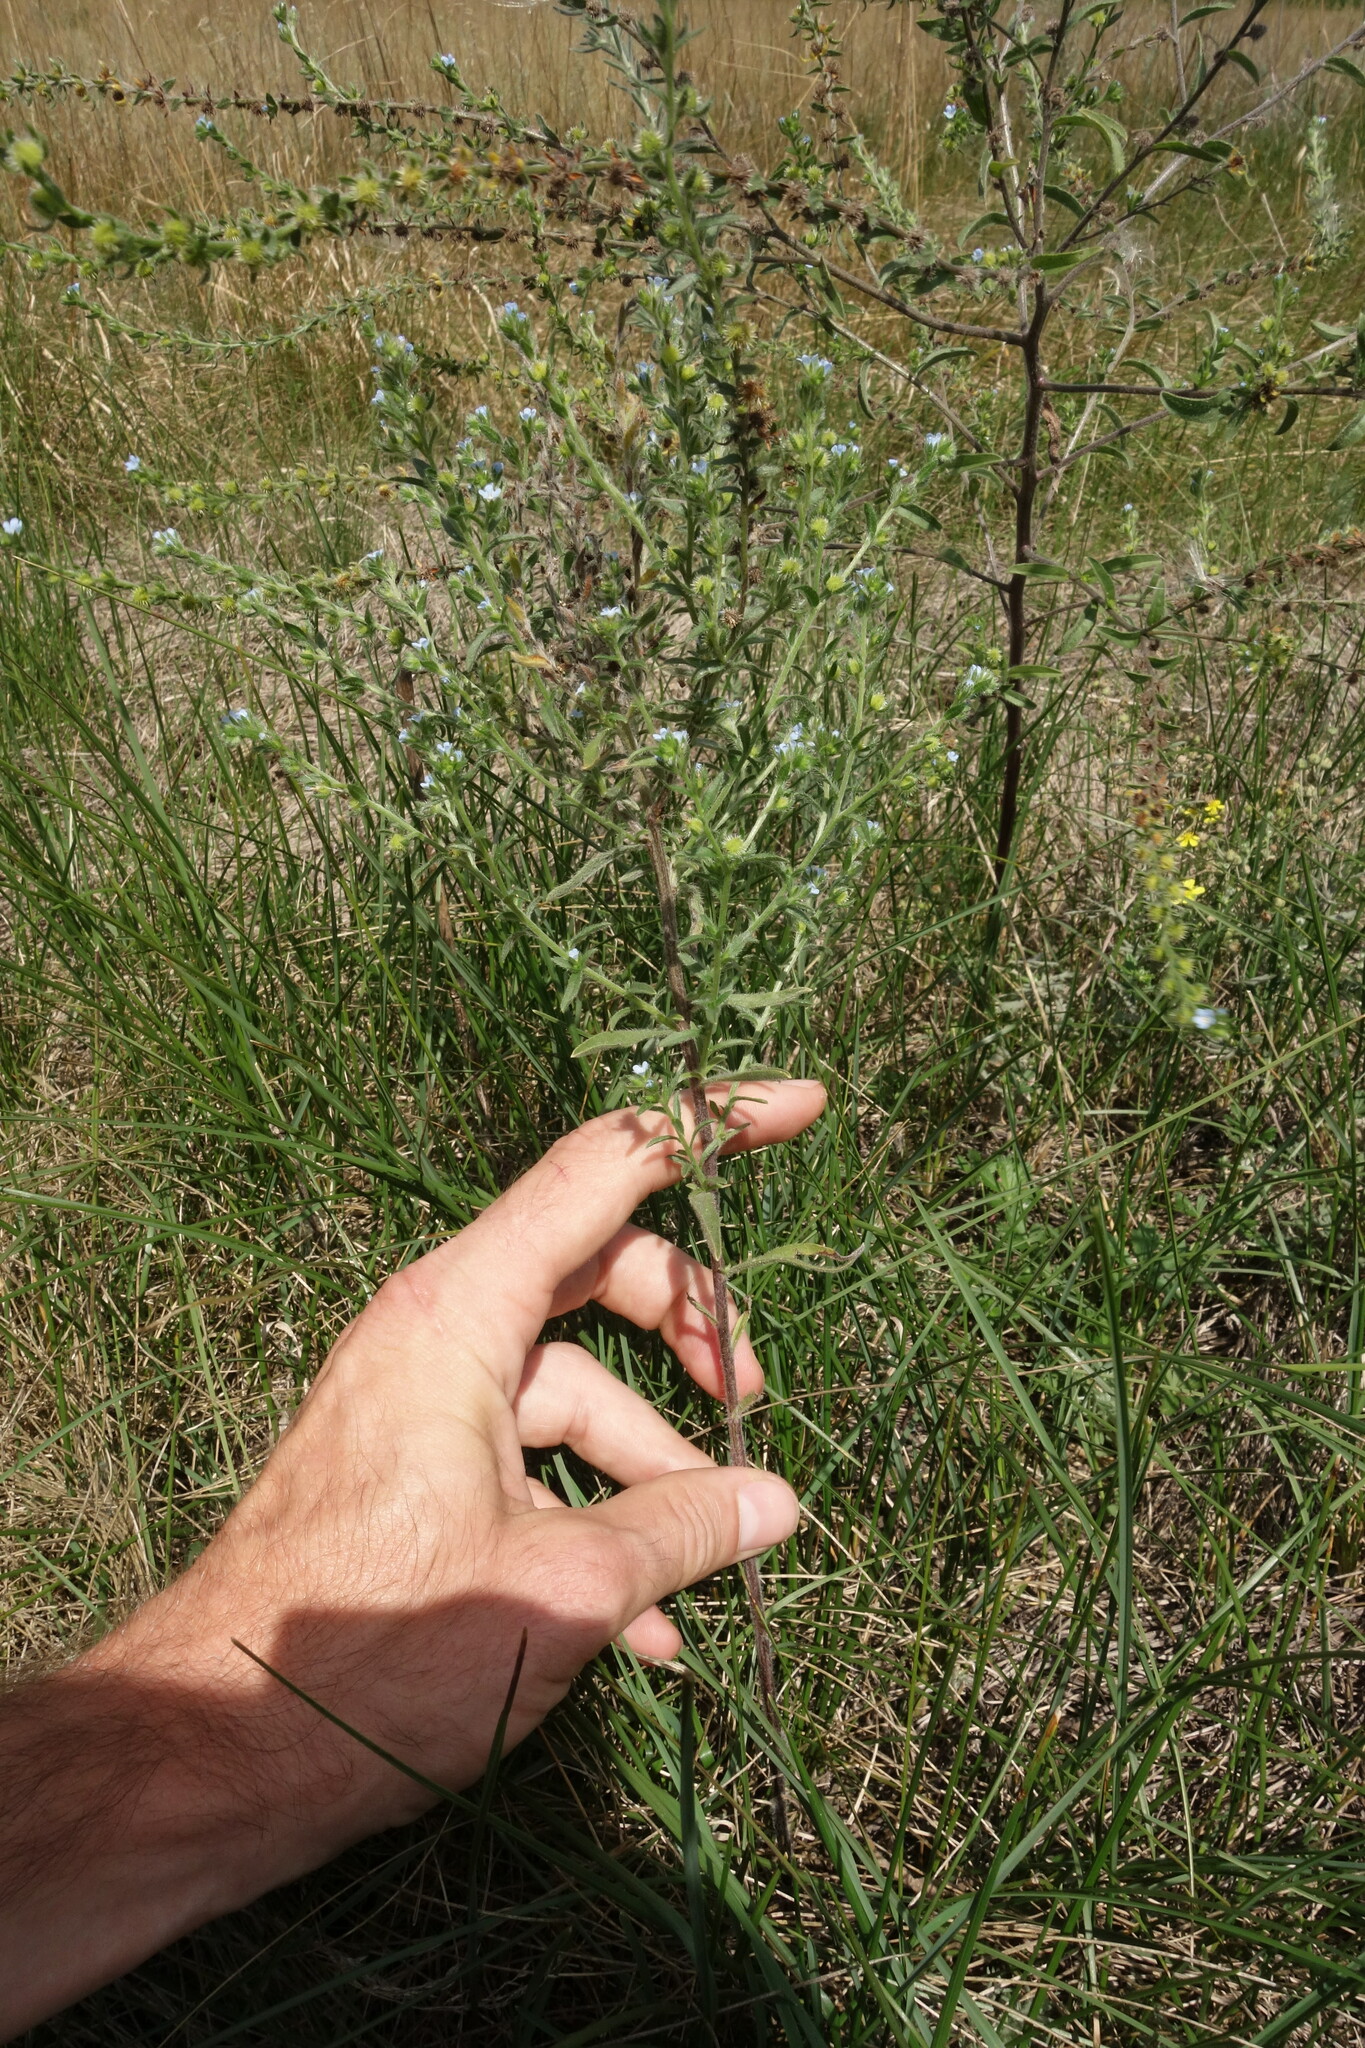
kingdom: Plantae
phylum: Tracheophyta
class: Magnoliopsida
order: Boraginales
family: Boraginaceae
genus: Lappula
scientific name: Lappula squarrosa
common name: European stickseed
